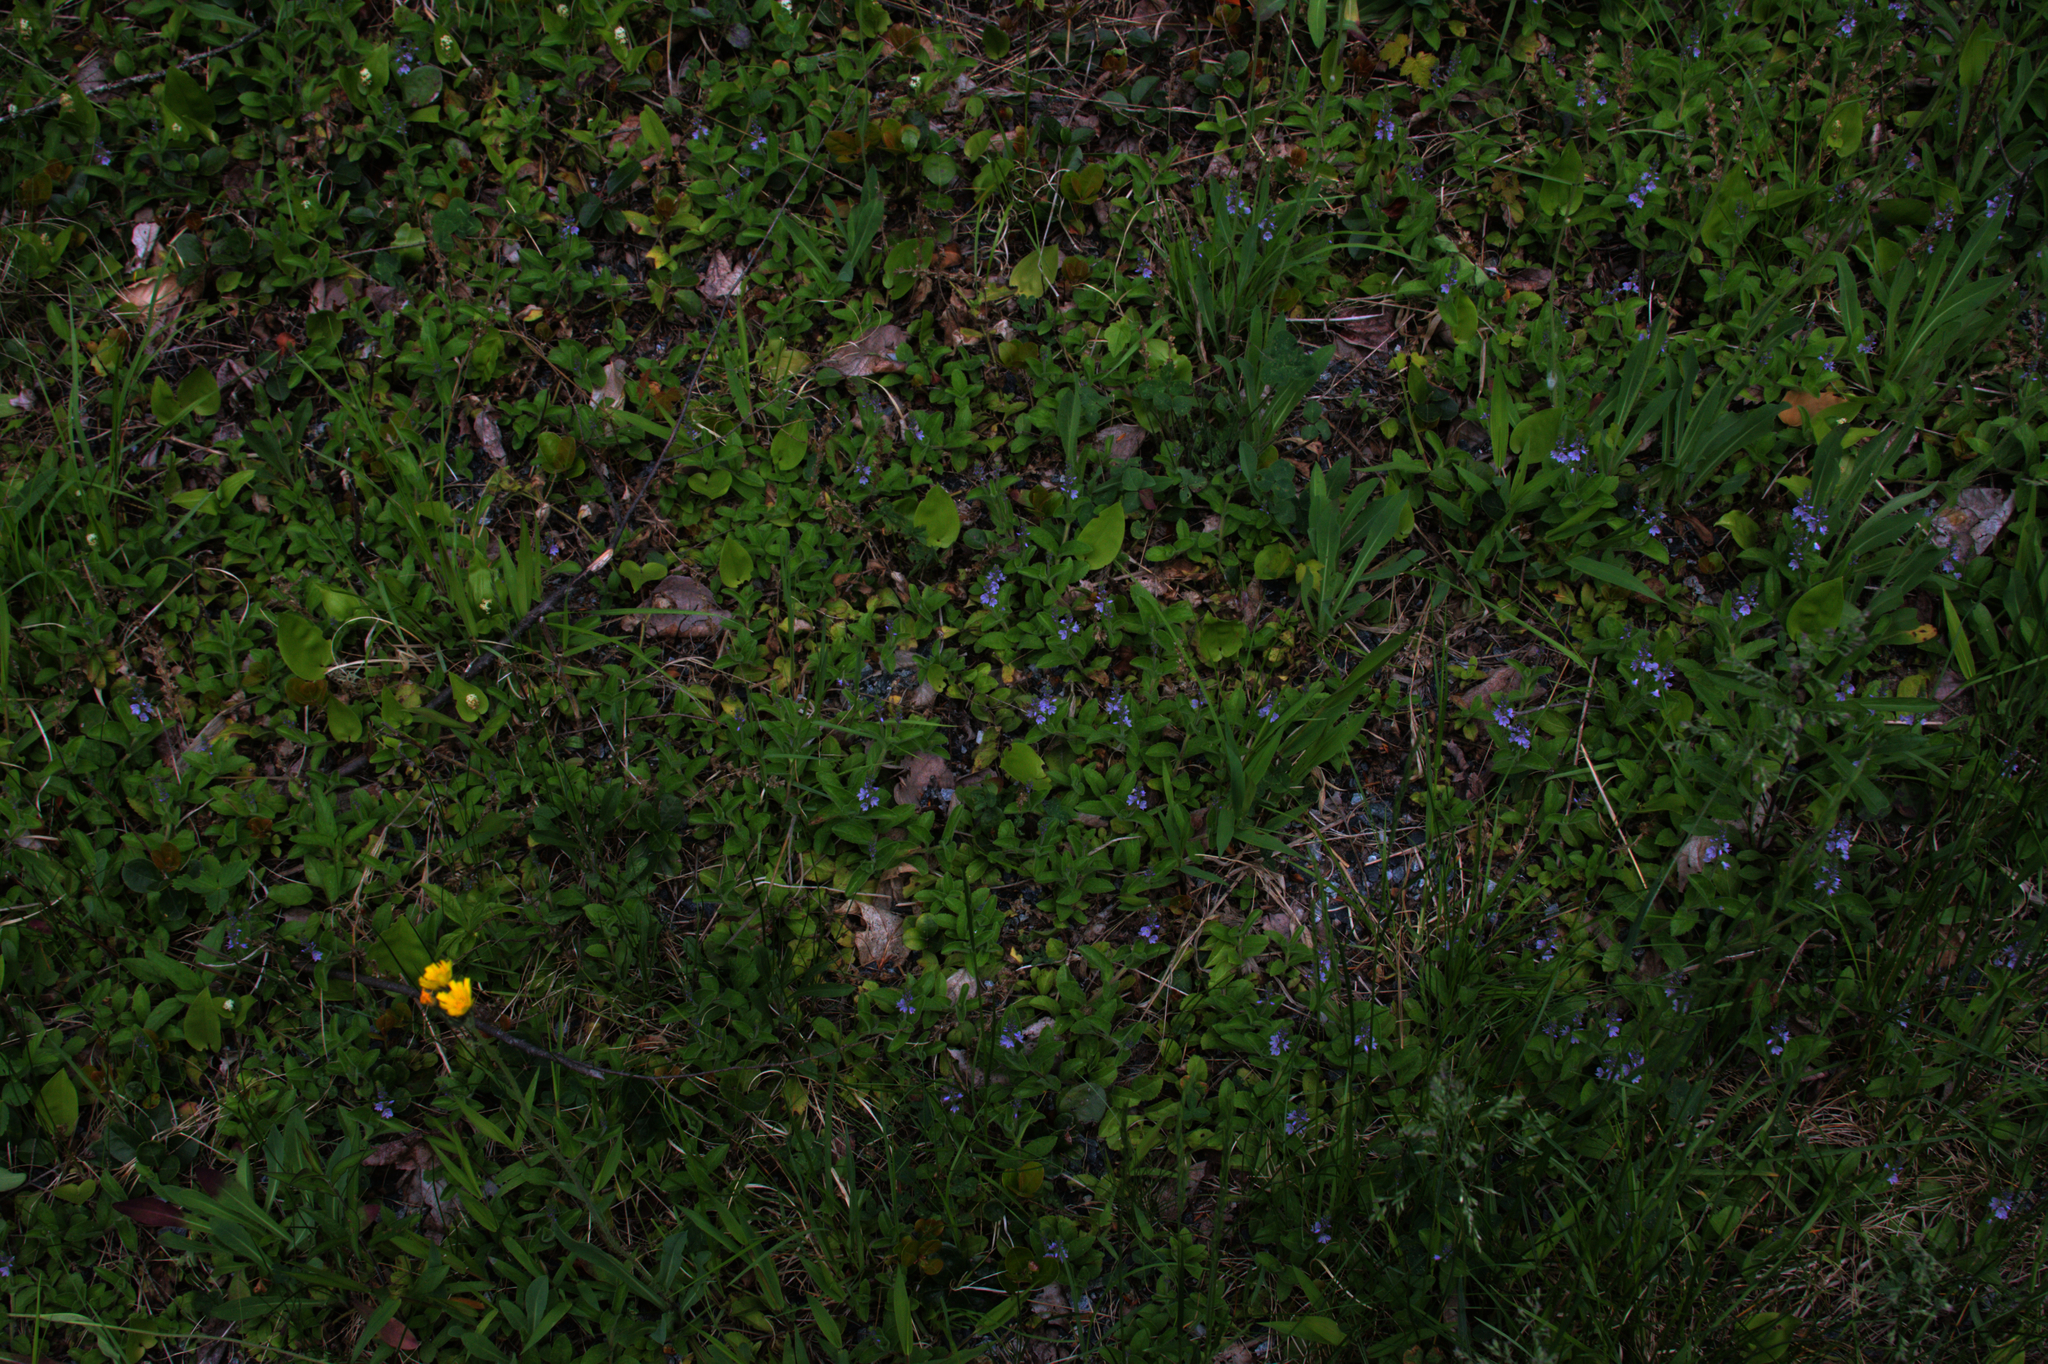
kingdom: Plantae
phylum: Tracheophyta
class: Magnoliopsida
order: Lamiales
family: Plantaginaceae
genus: Veronica
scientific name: Veronica officinalis
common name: Common speedwell
